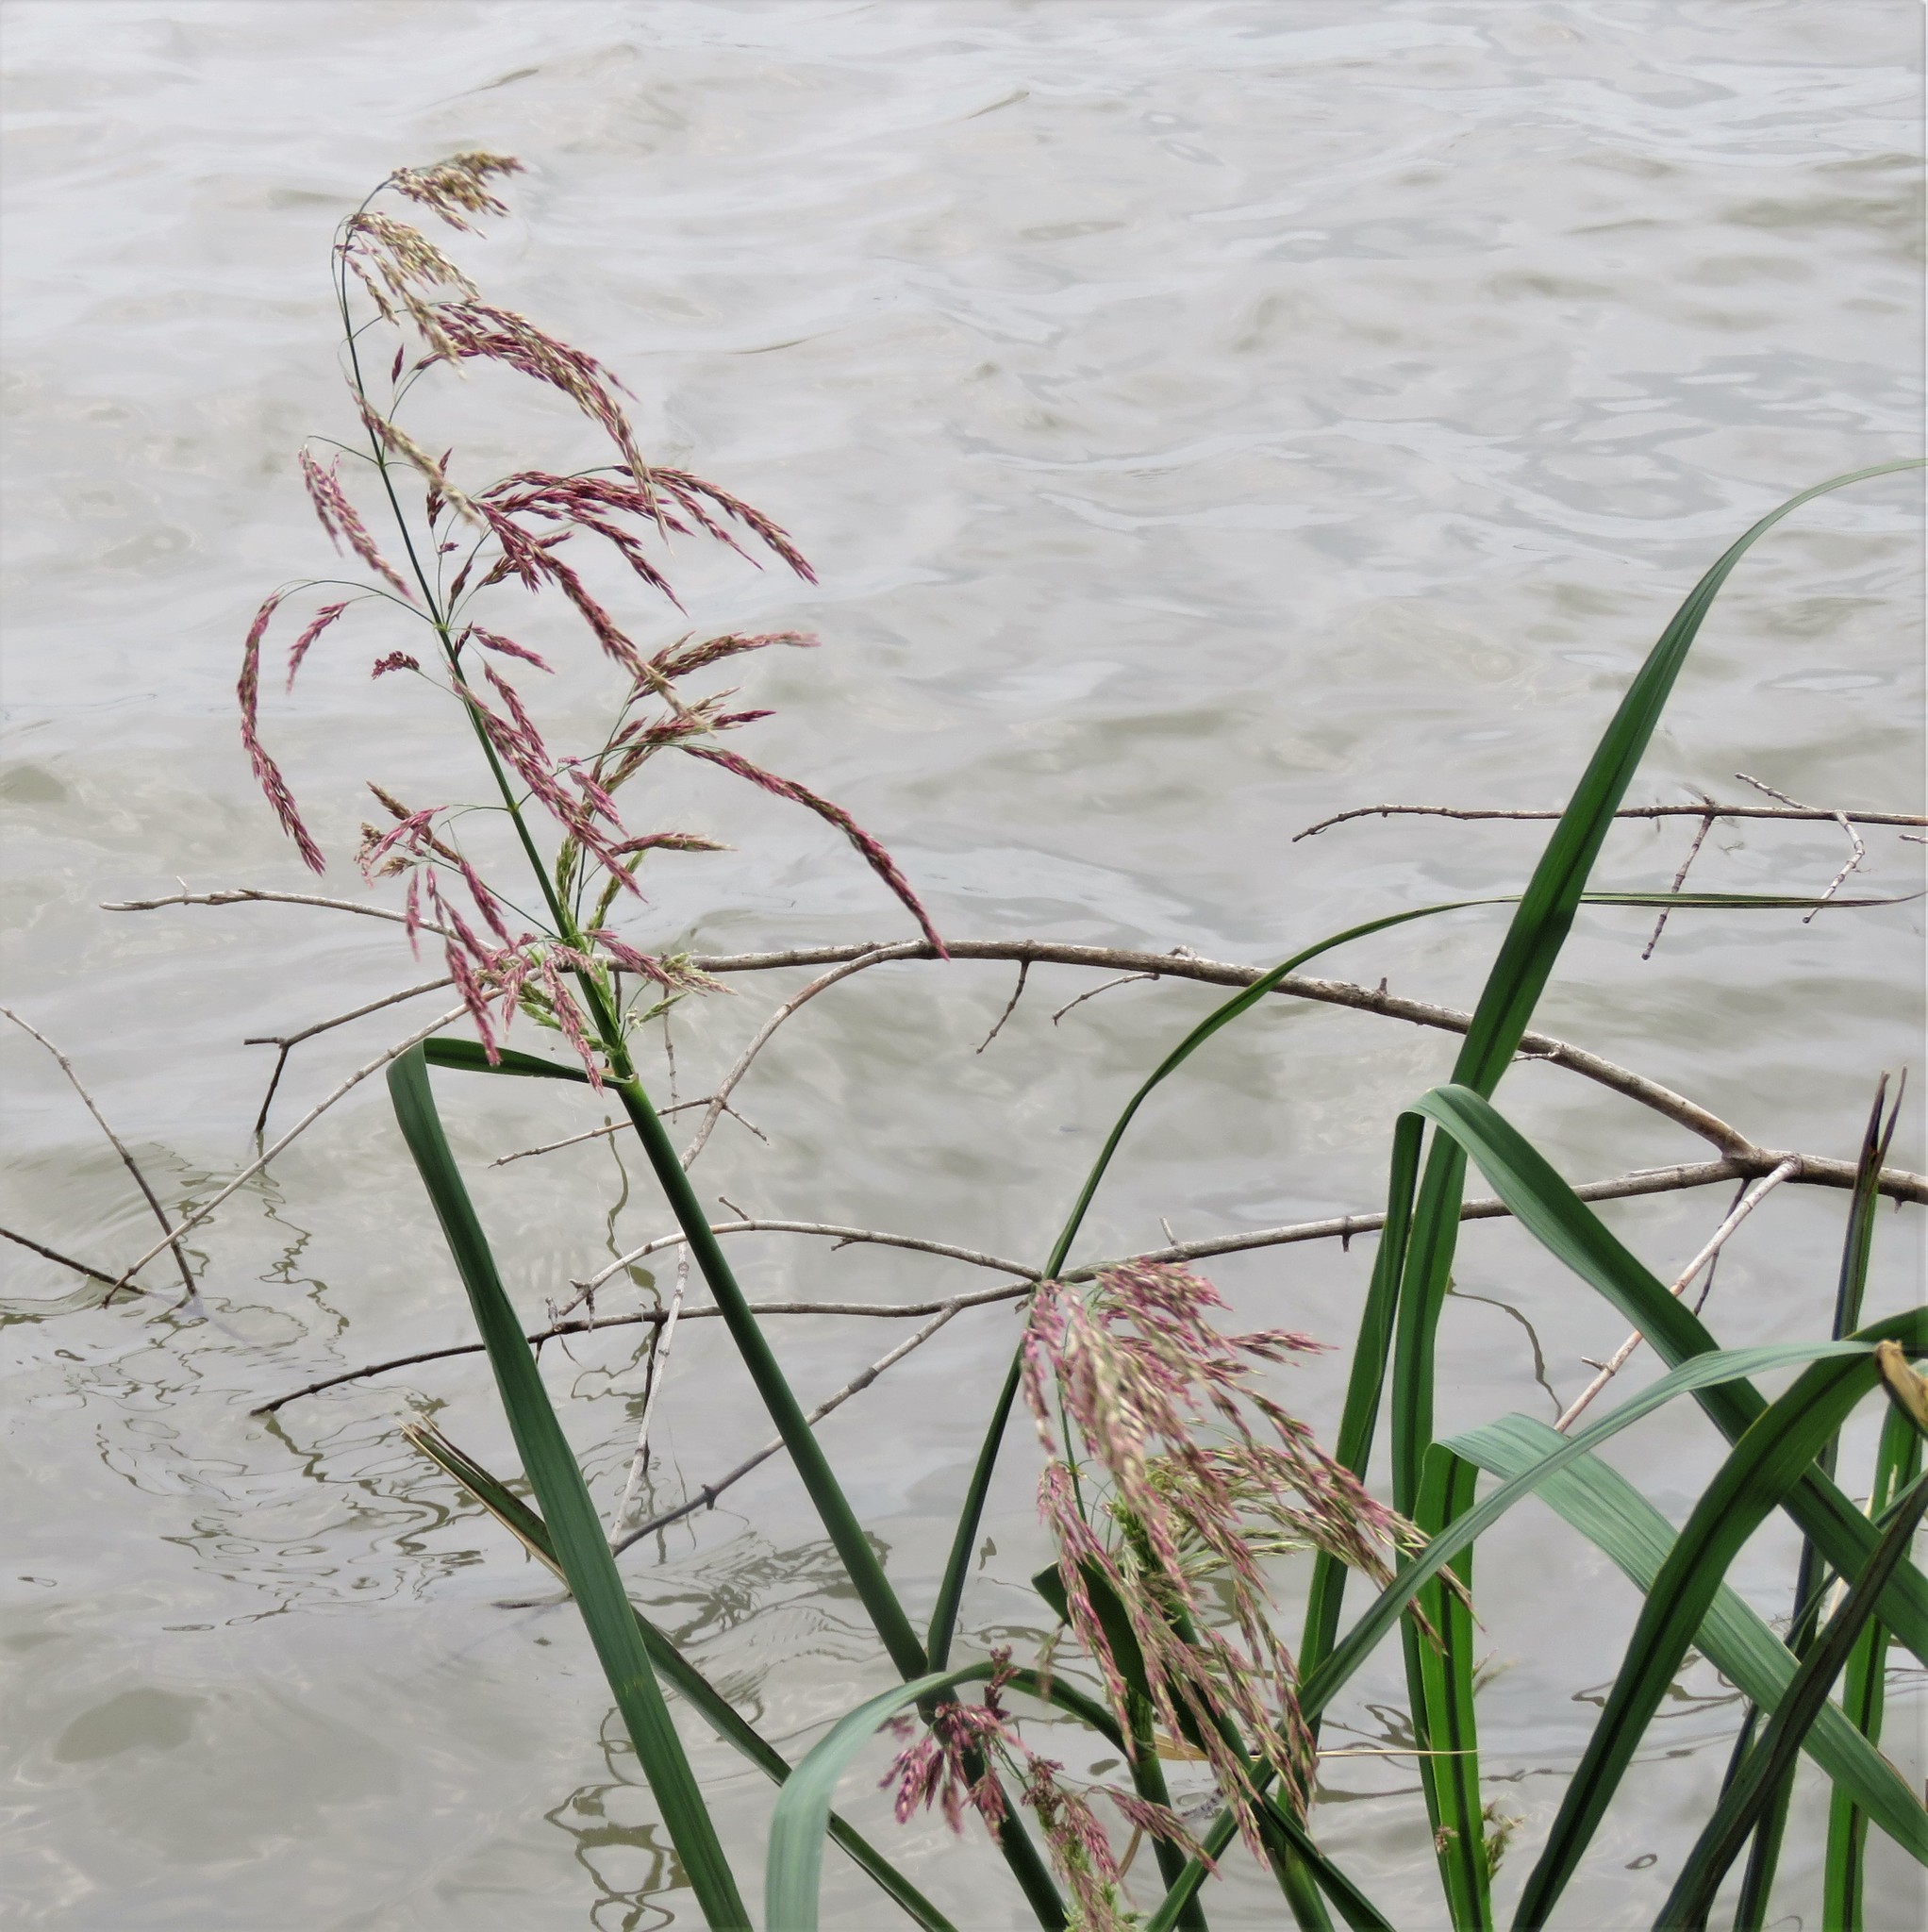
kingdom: Plantae
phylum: Tracheophyta
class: Liliopsida
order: Poales
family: Poaceae
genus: Zizaniopsis
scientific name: Zizaniopsis miliacea
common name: Giant-cutgrass
